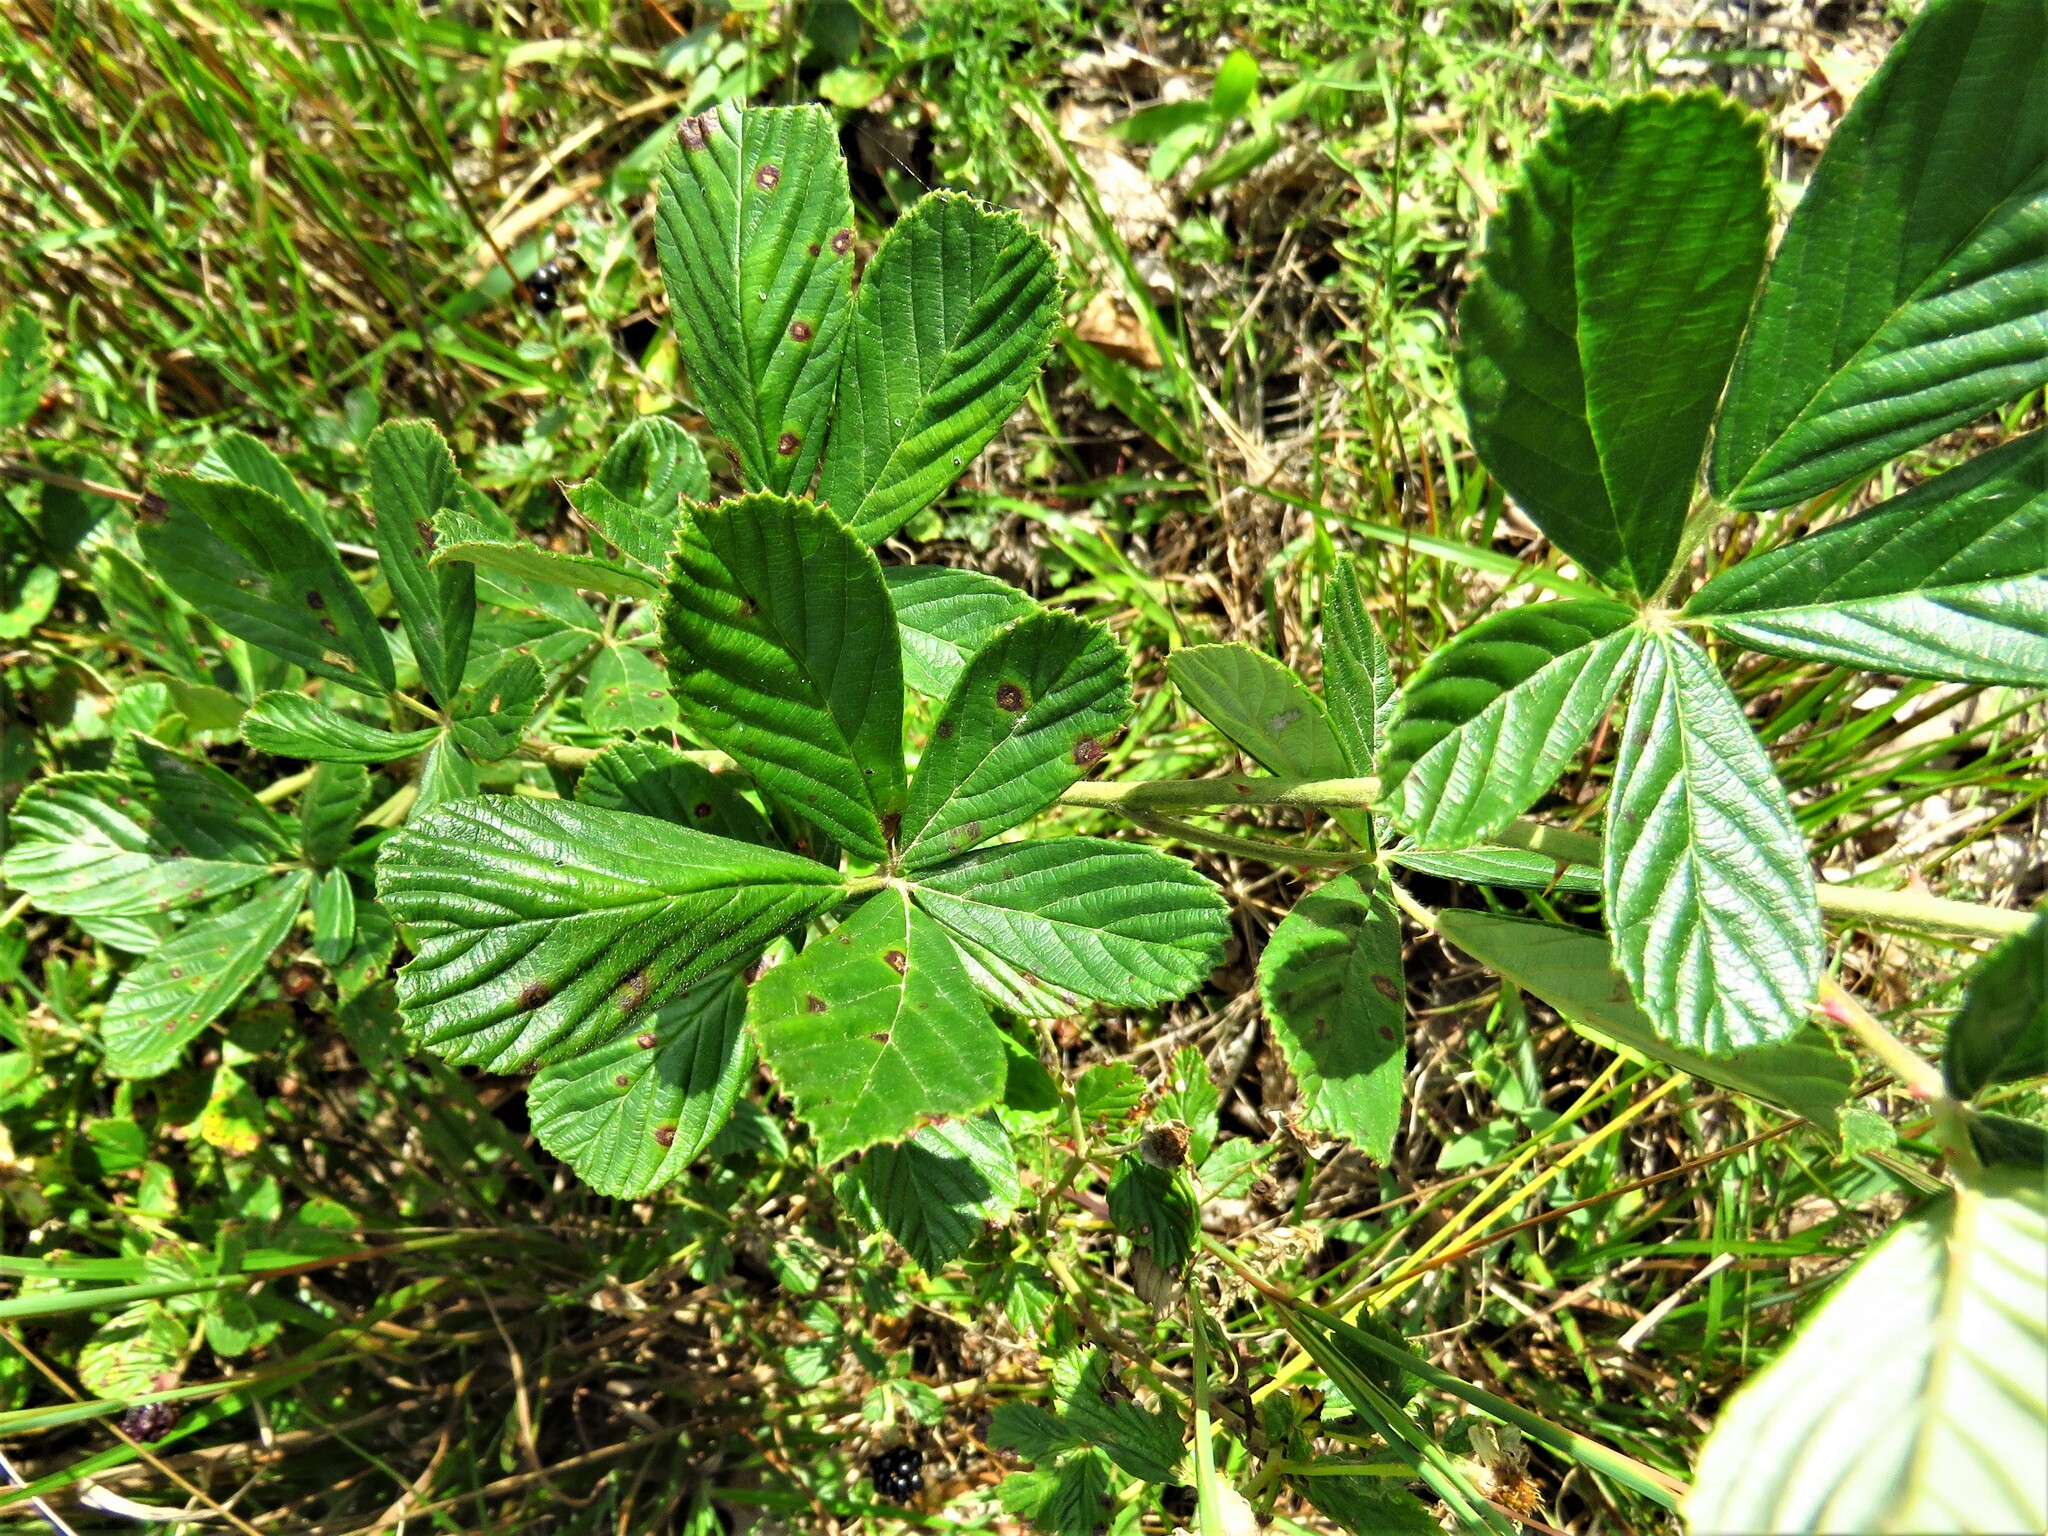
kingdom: Plantae
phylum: Tracheophyta
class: Magnoliopsida
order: Rosales
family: Rosaceae
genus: Rubus
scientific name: Rubus cuneifolius
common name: American bramble
